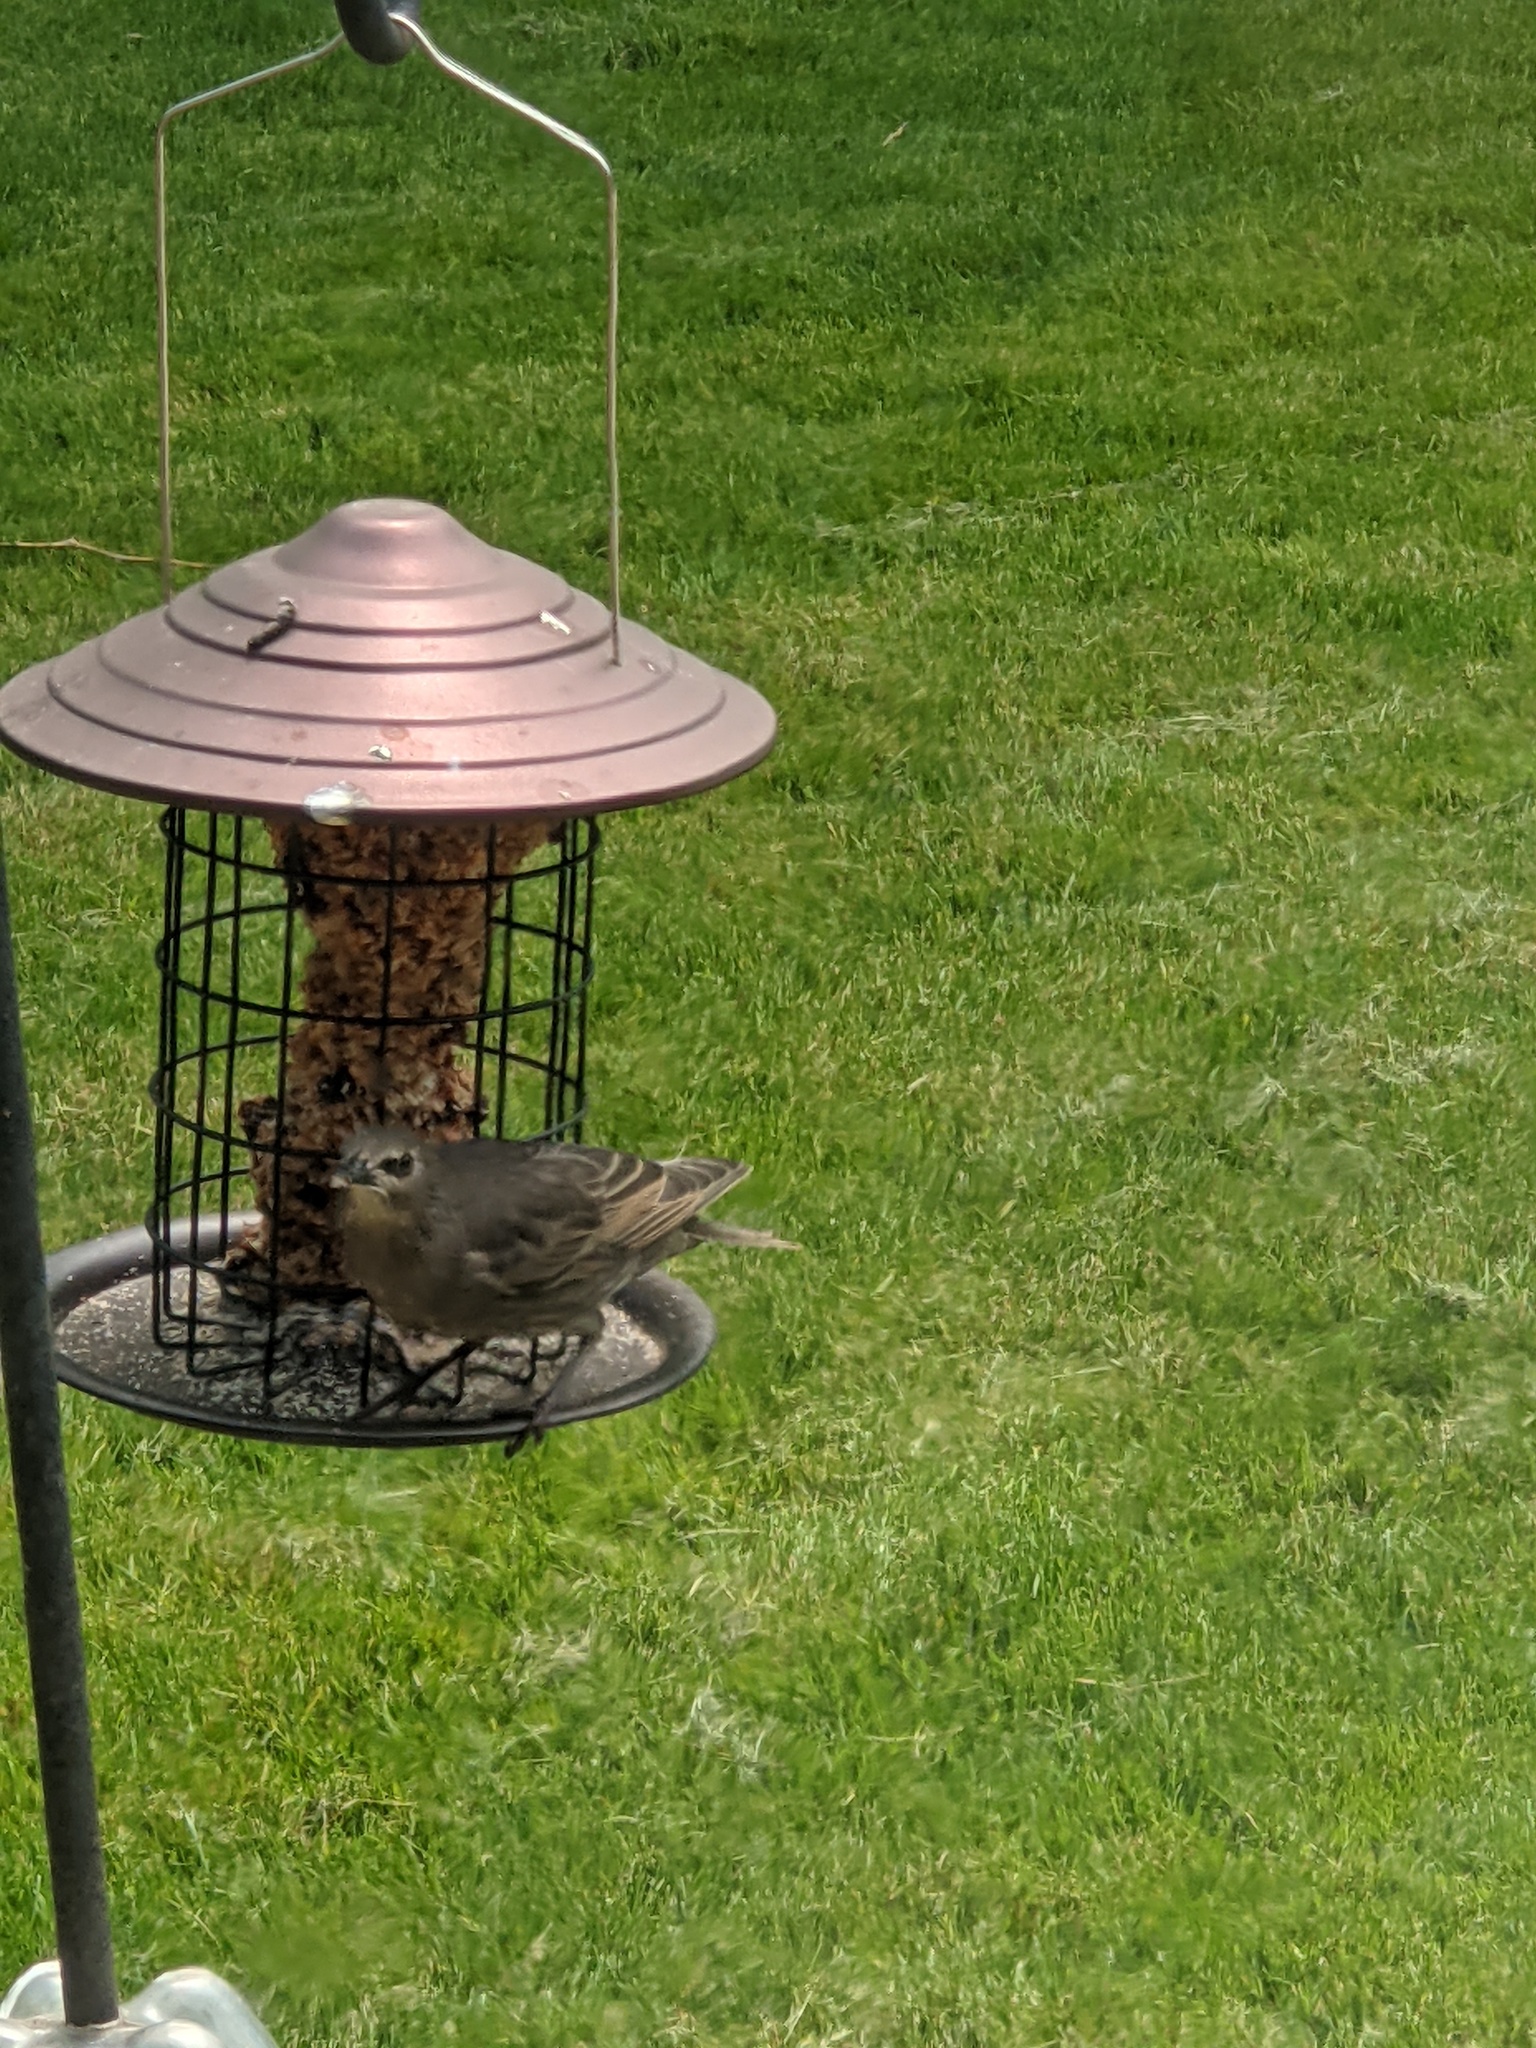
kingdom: Animalia
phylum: Chordata
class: Aves
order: Passeriformes
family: Sturnidae
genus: Sturnus
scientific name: Sturnus vulgaris
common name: Common starling
